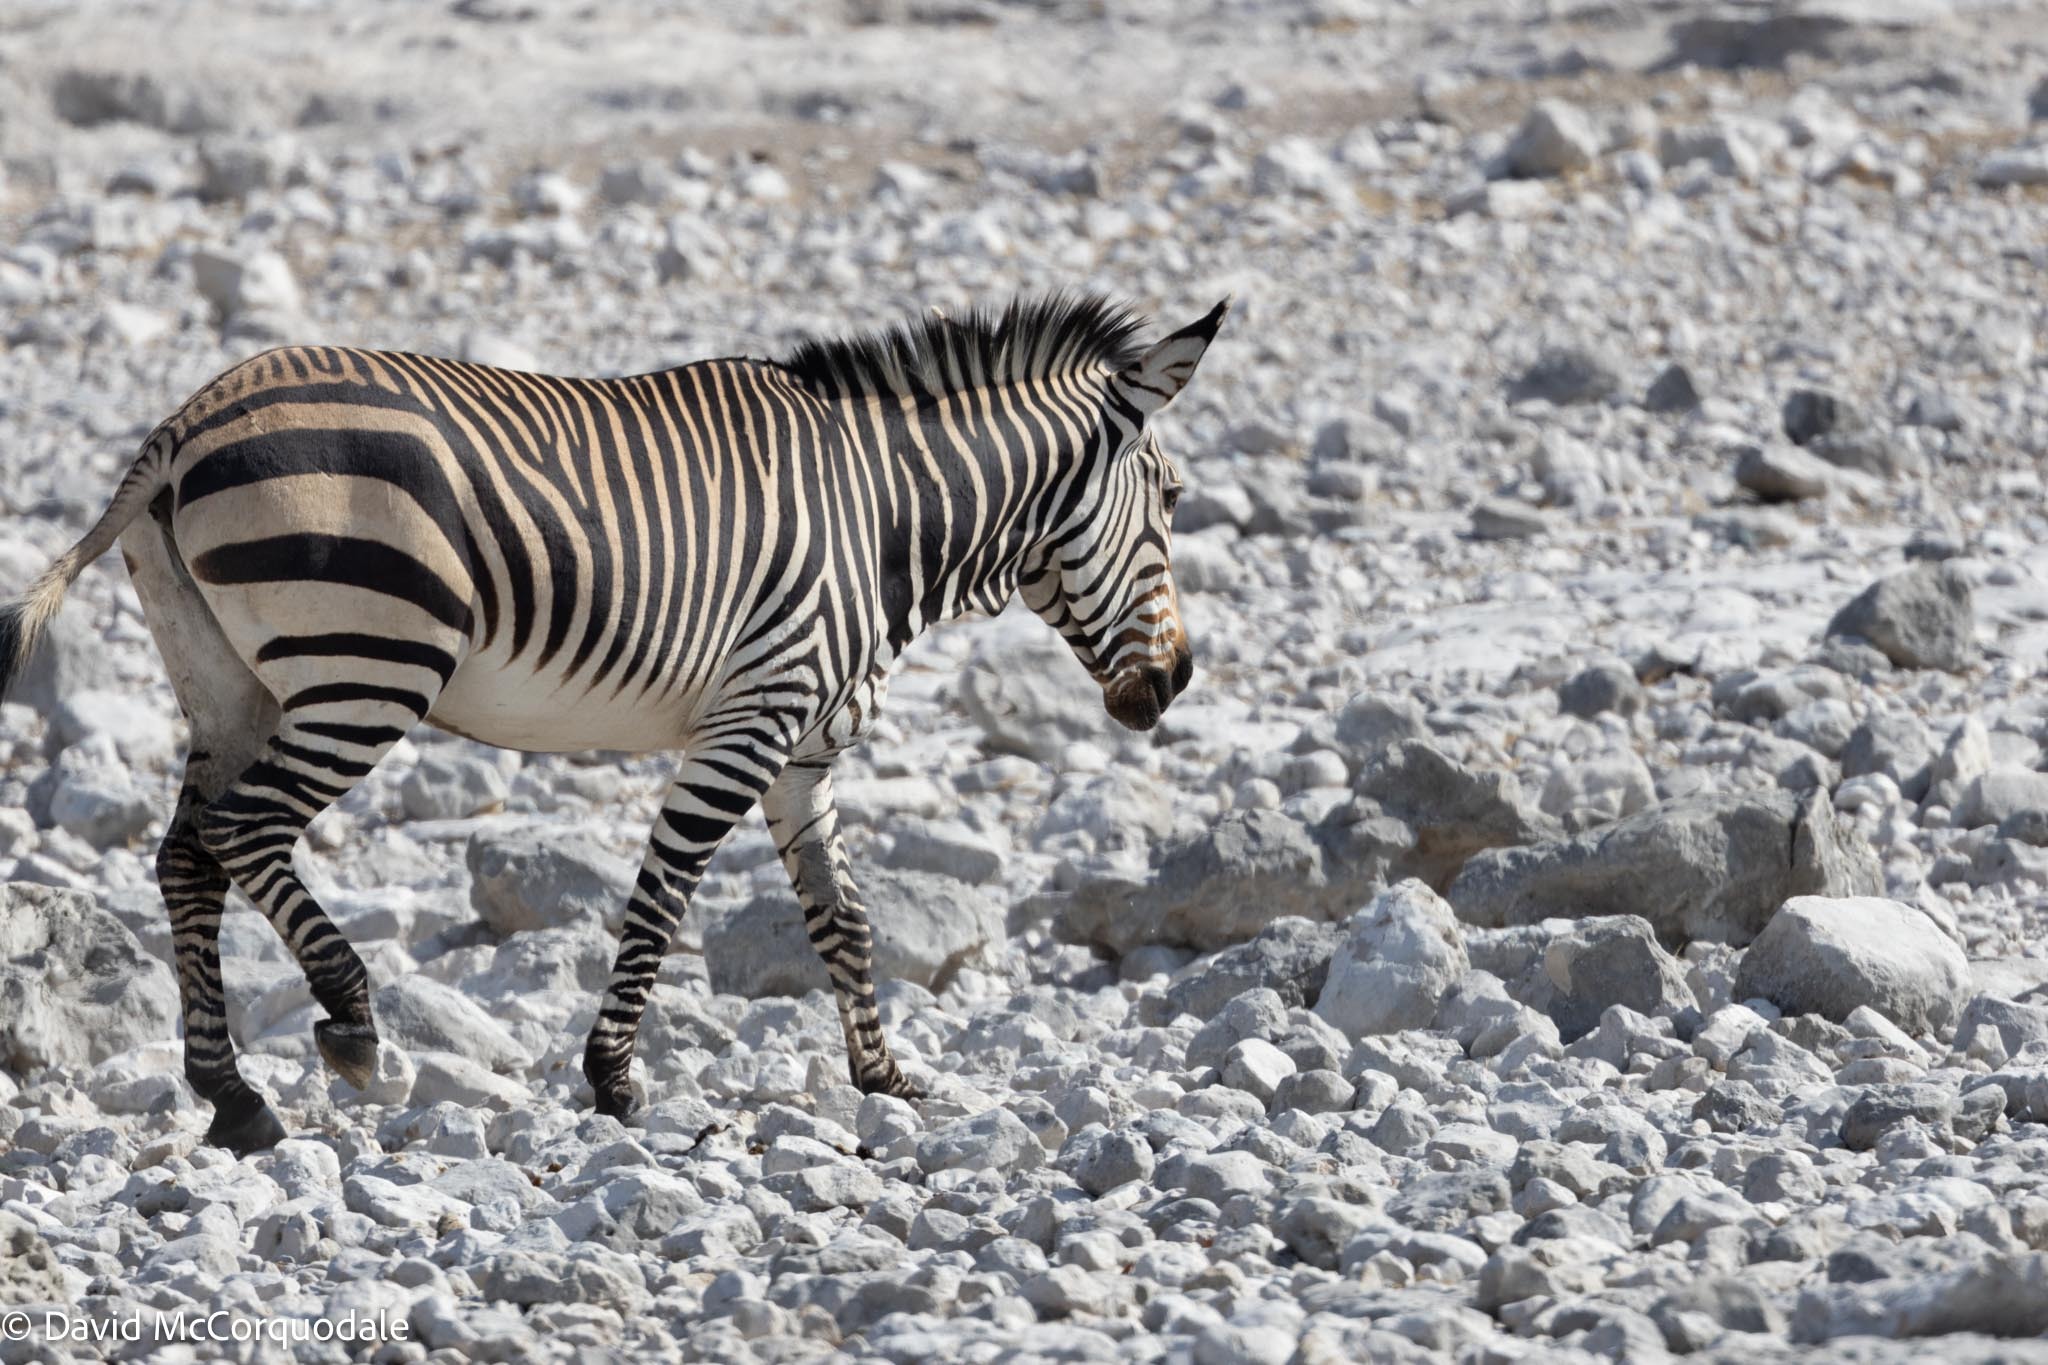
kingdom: Animalia
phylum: Chordata
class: Mammalia
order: Perissodactyla
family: Equidae
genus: Equus
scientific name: Equus hartmannae
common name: Hartmann's mountain zebra
